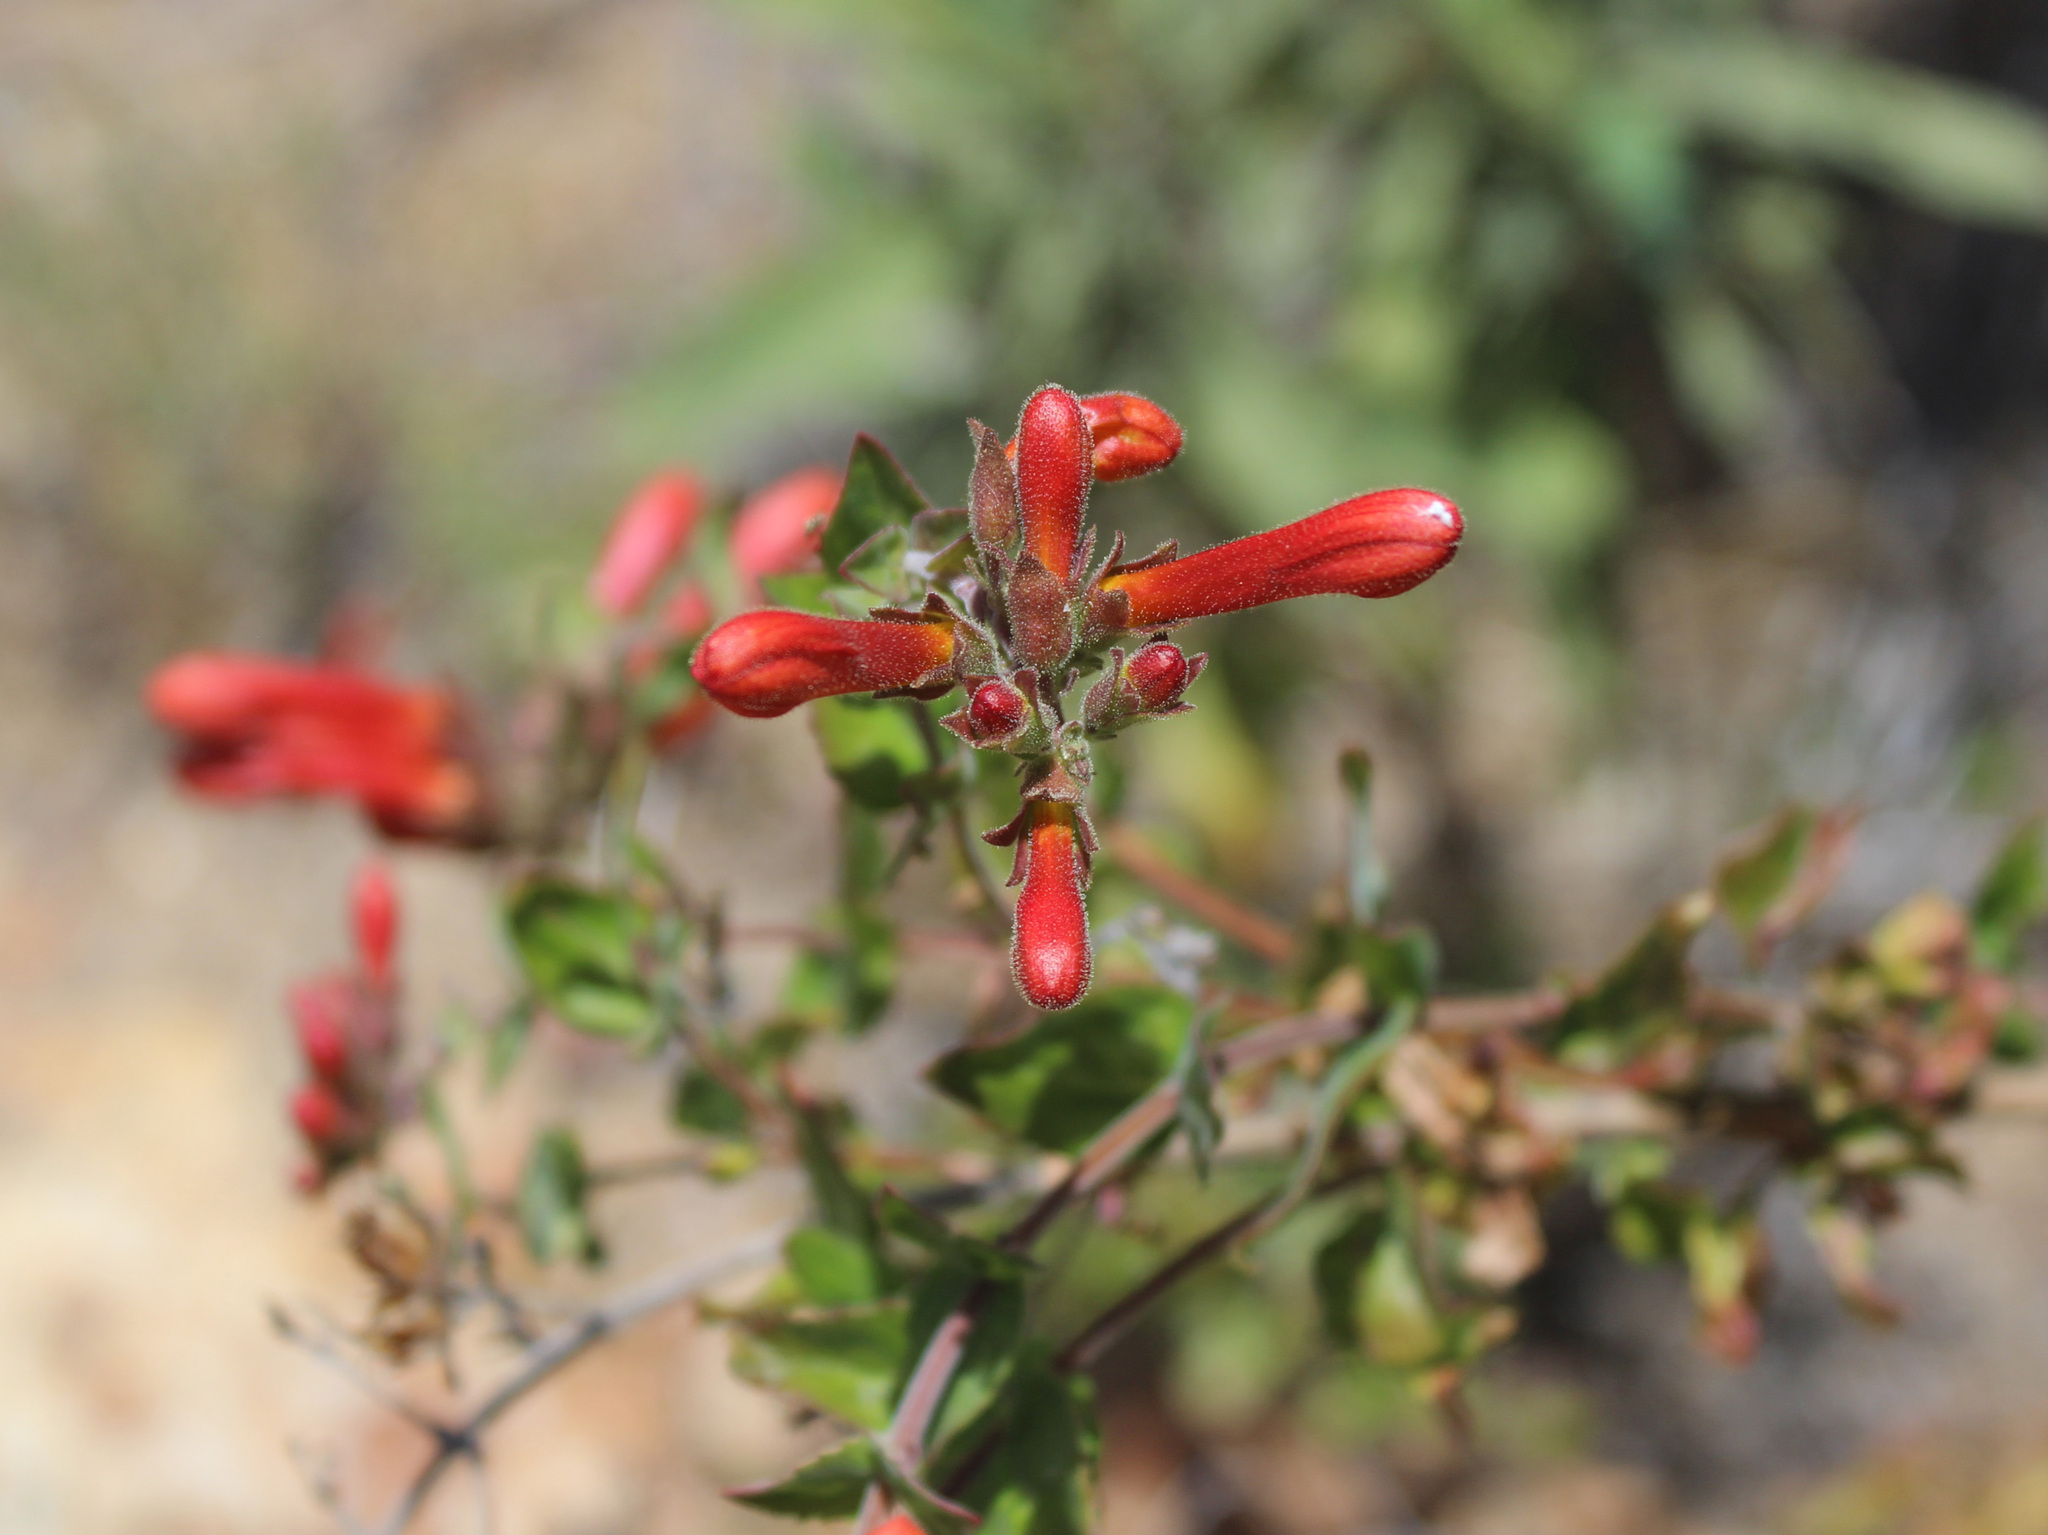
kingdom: Plantae
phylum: Tracheophyta
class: Magnoliopsida
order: Lamiales
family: Plantaginaceae
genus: Keckiella
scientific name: Keckiella cordifolia
